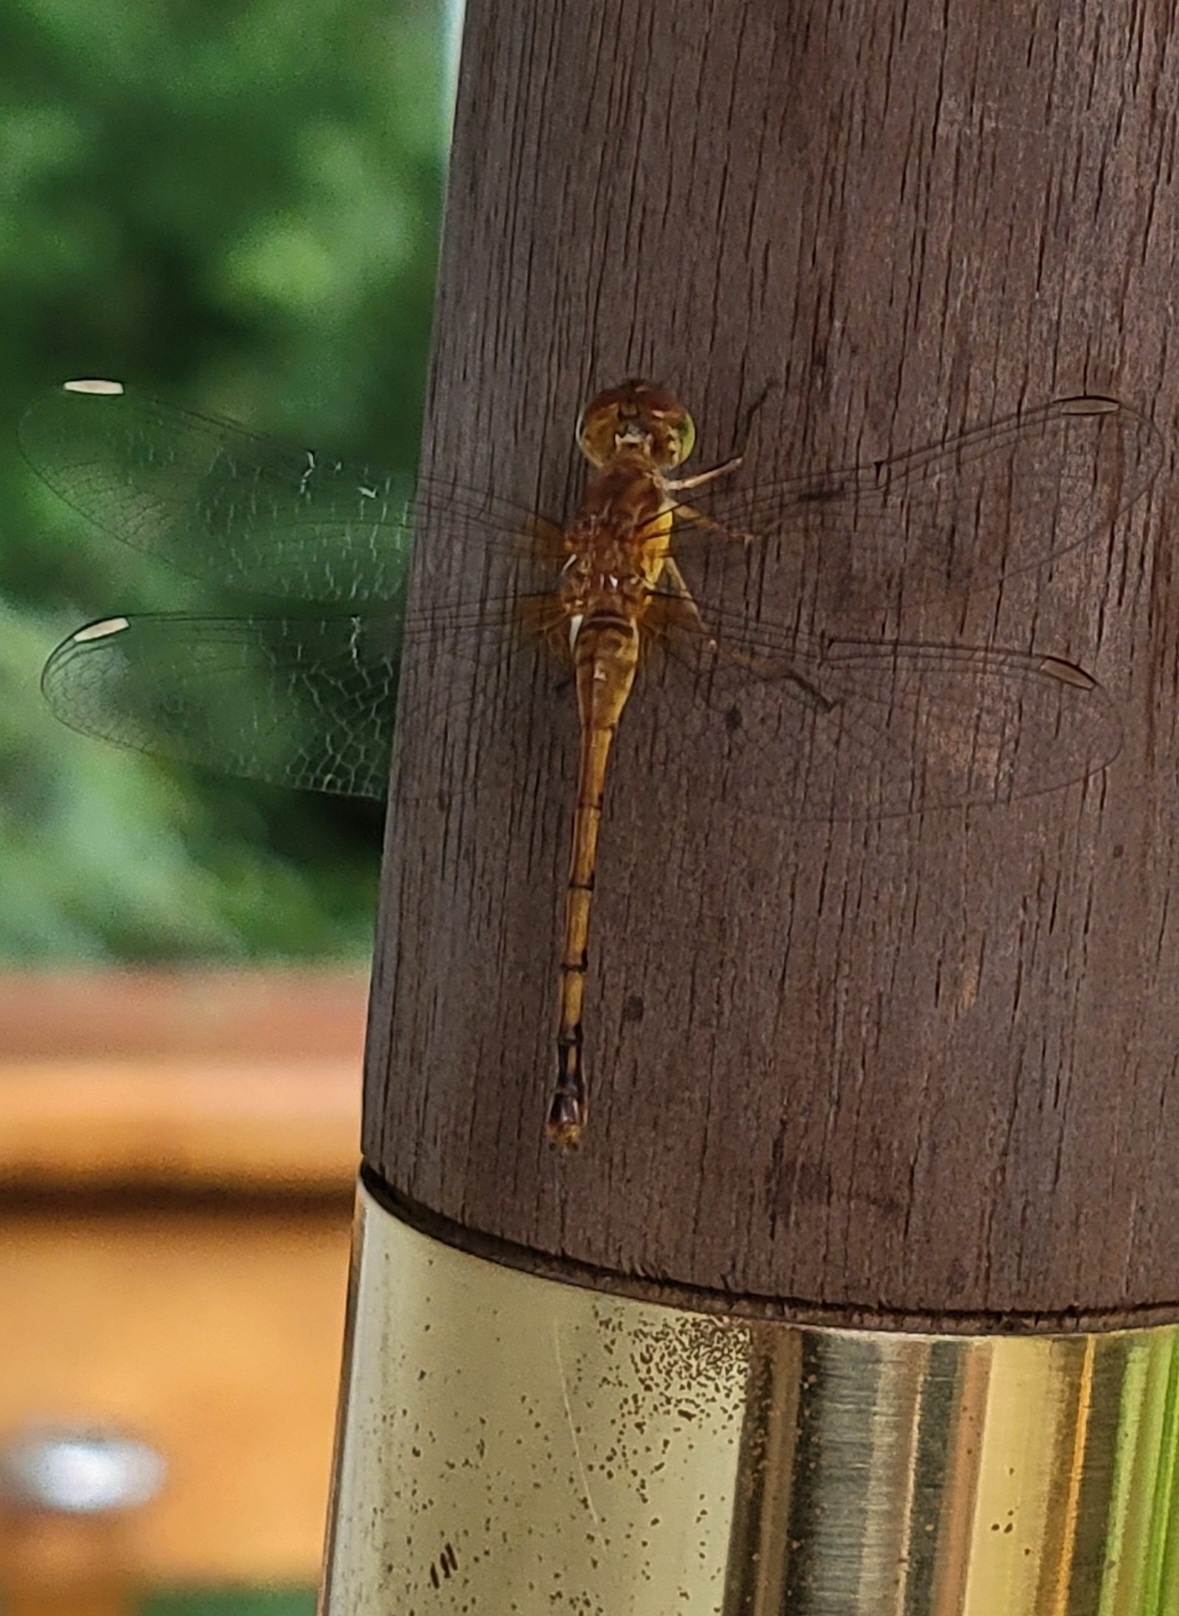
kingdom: Animalia
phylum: Arthropoda
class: Insecta
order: Odonata
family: Libellulidae
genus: Sympetrum
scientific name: Sympetrum vicinum
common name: Autumn meadowhawk
